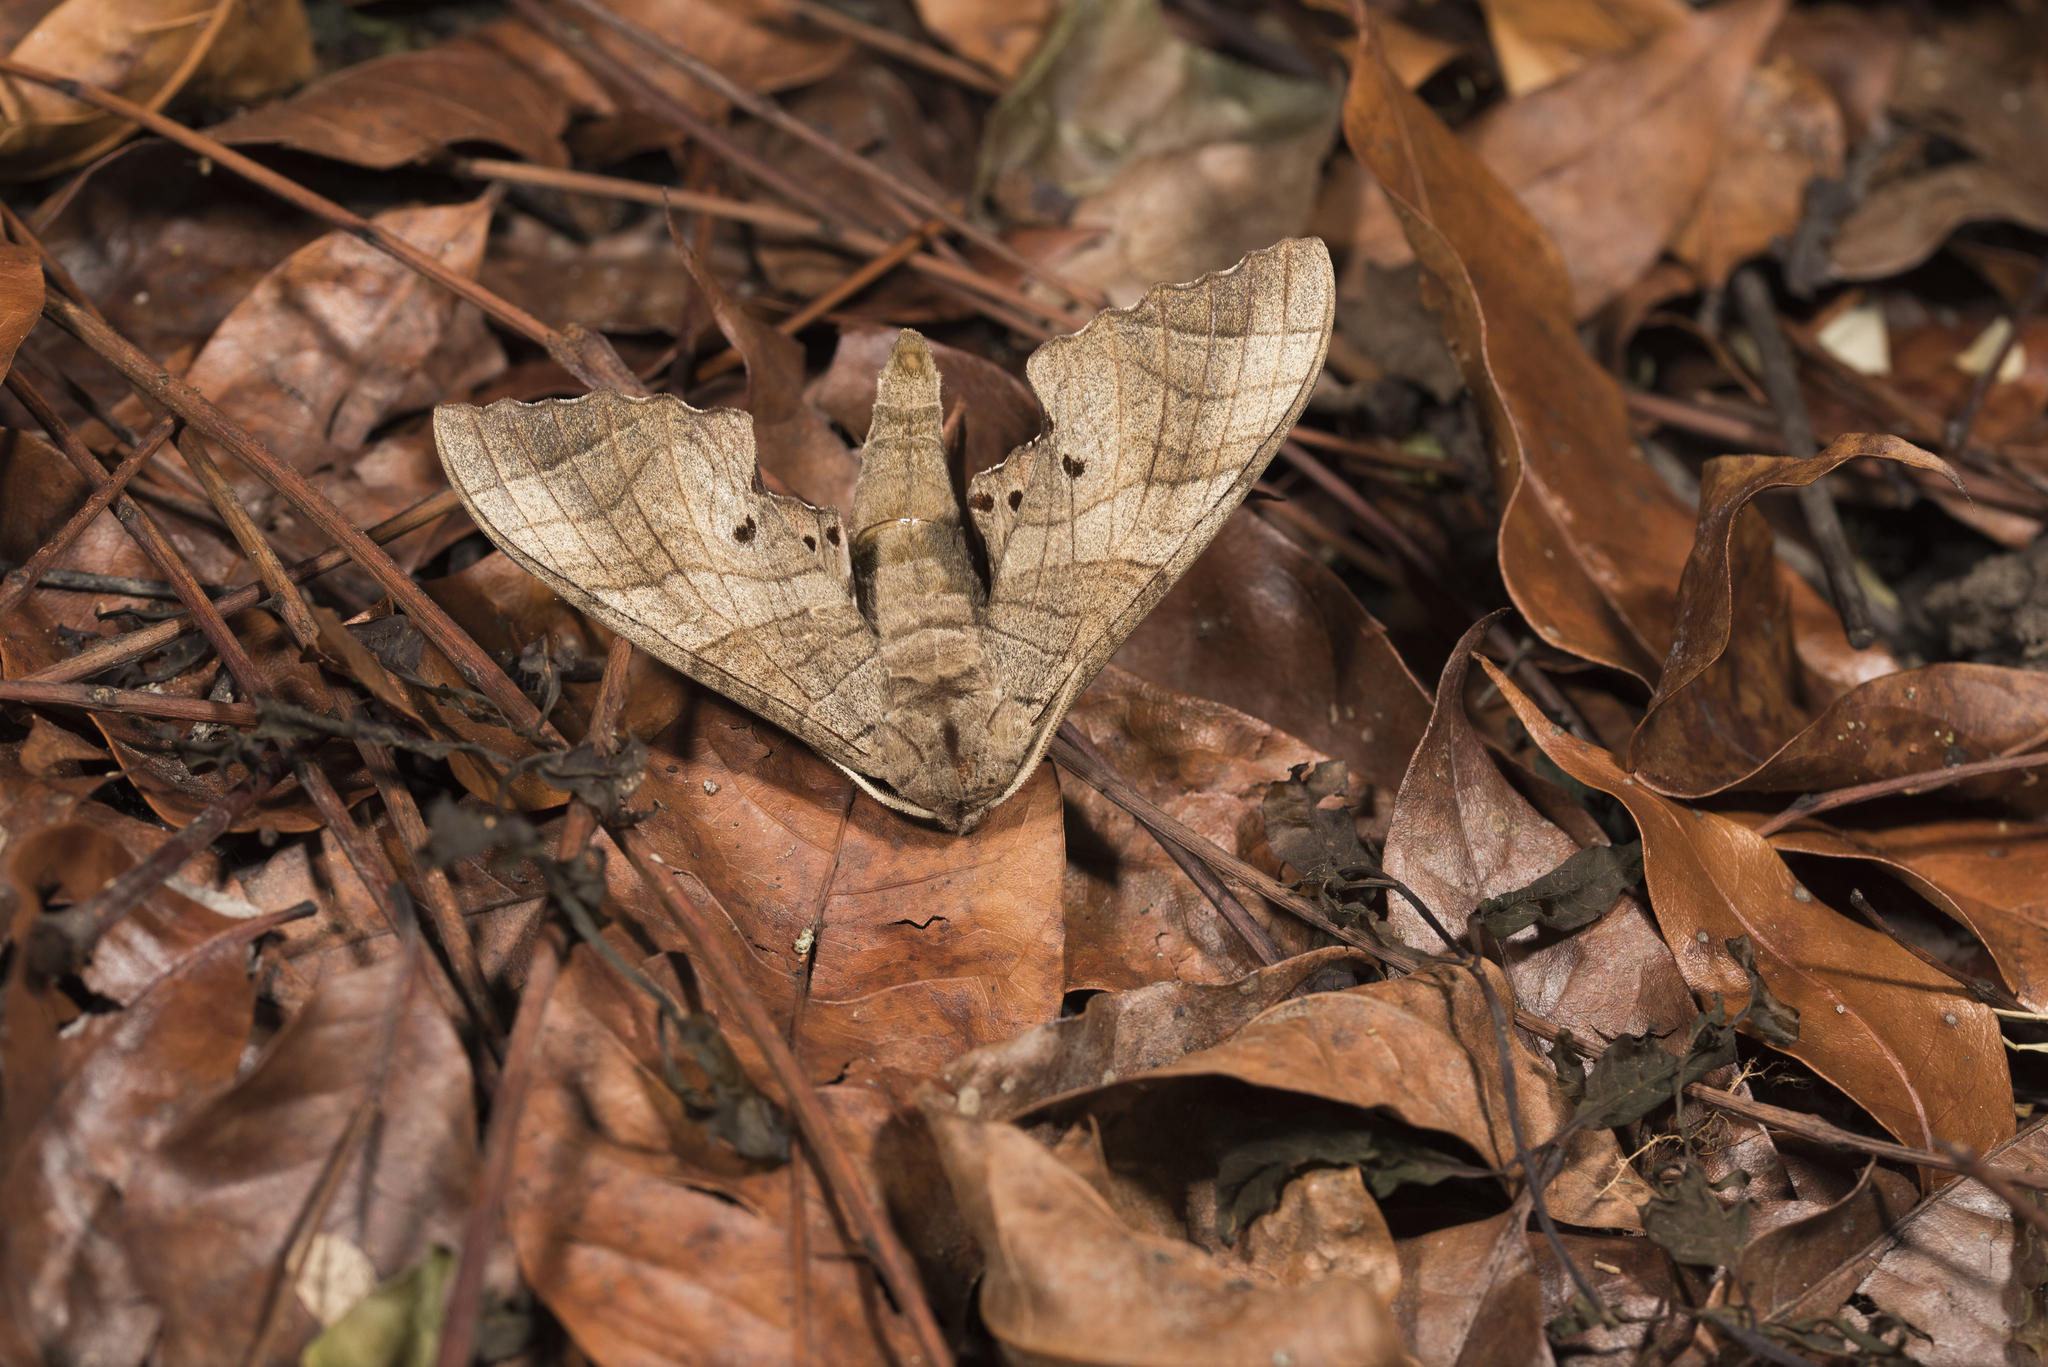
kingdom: Animalia
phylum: Arthropoda
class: Insecta
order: Lepidoptera
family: Sphingidae
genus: Marumba
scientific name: Marumba dyras
